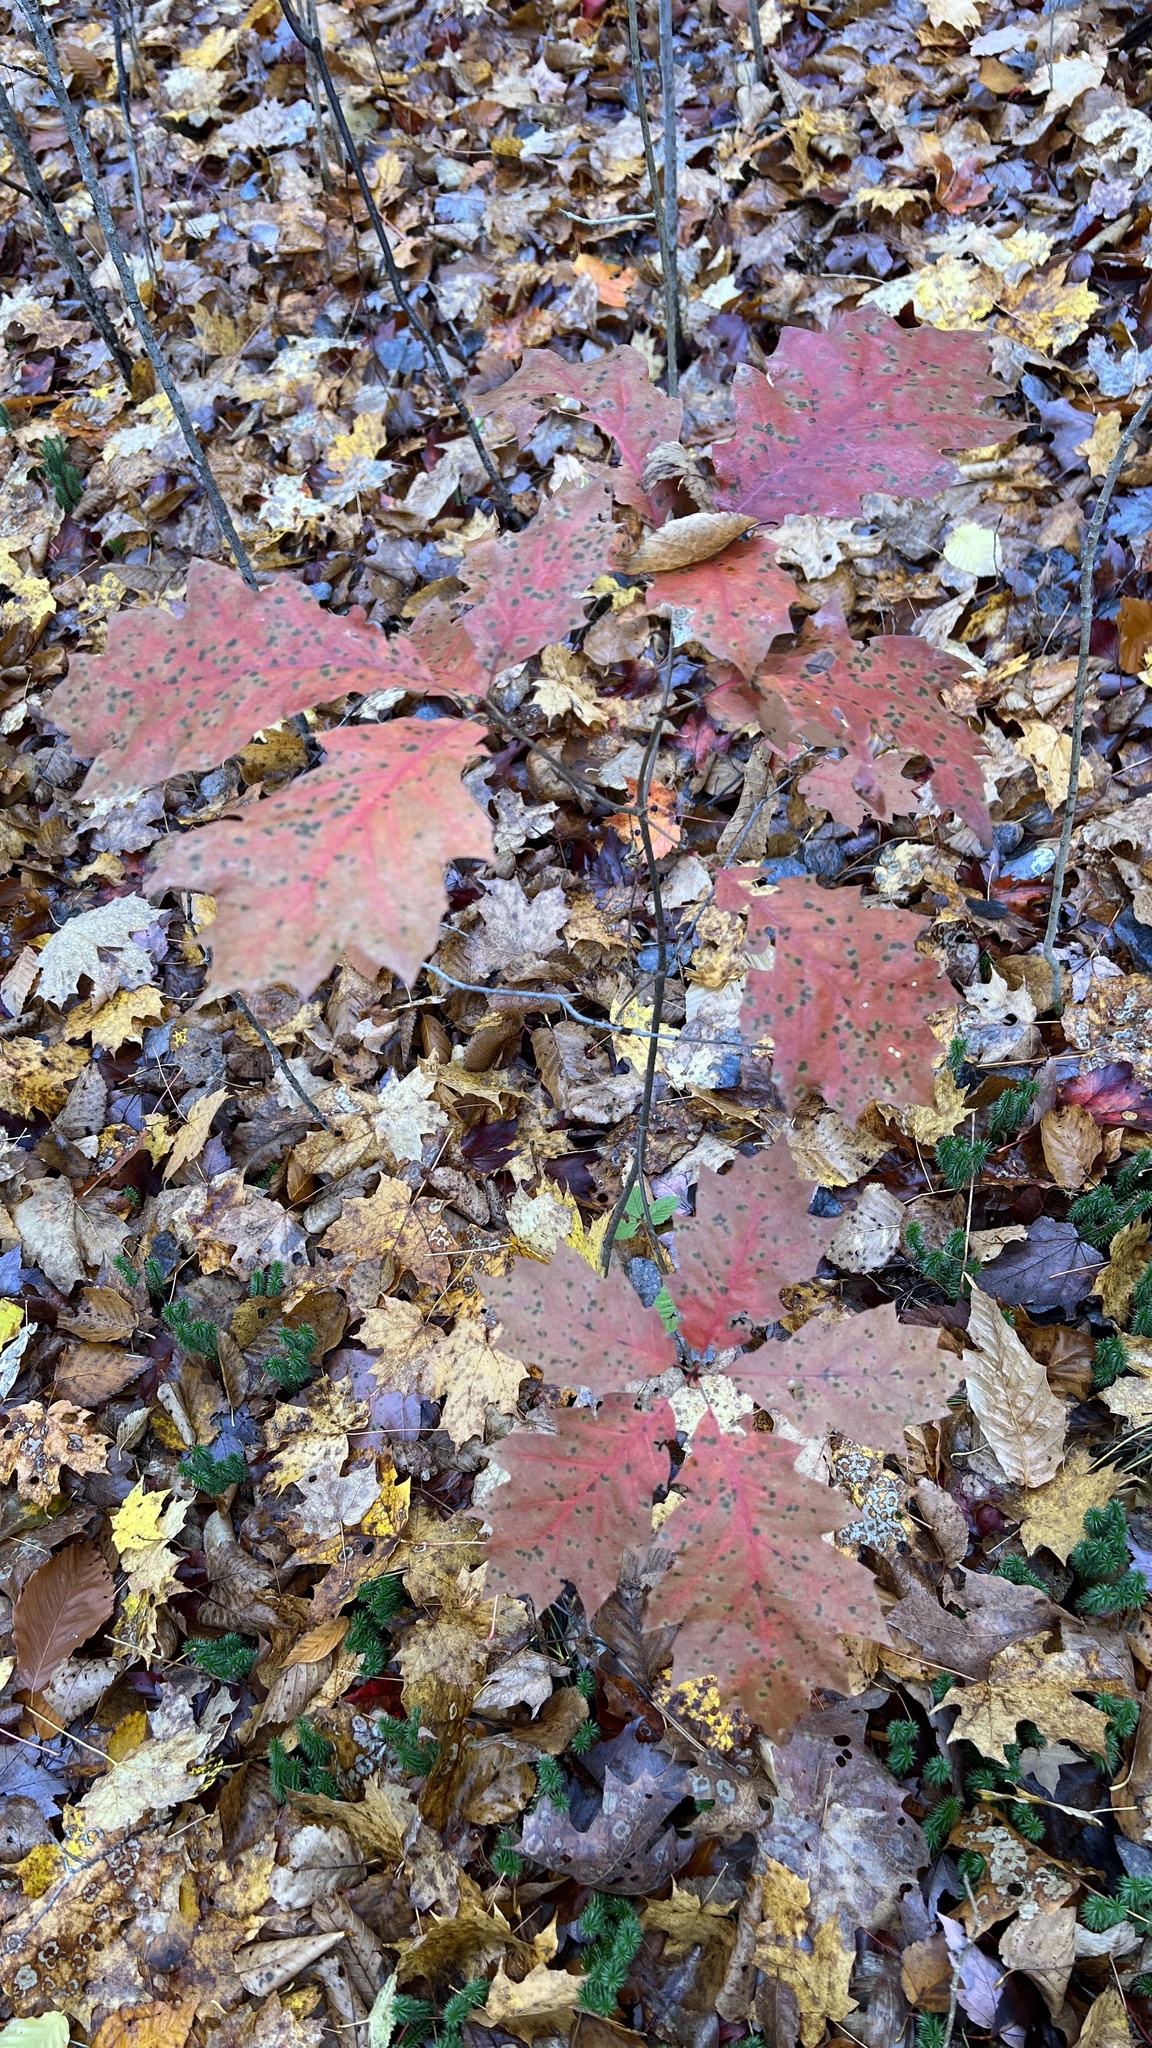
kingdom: Plantae
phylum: Tracheophyta
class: Magnoliopsida
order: Fagales
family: Fagaceae
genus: Quercus
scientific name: Quercus rubra
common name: Red oak
